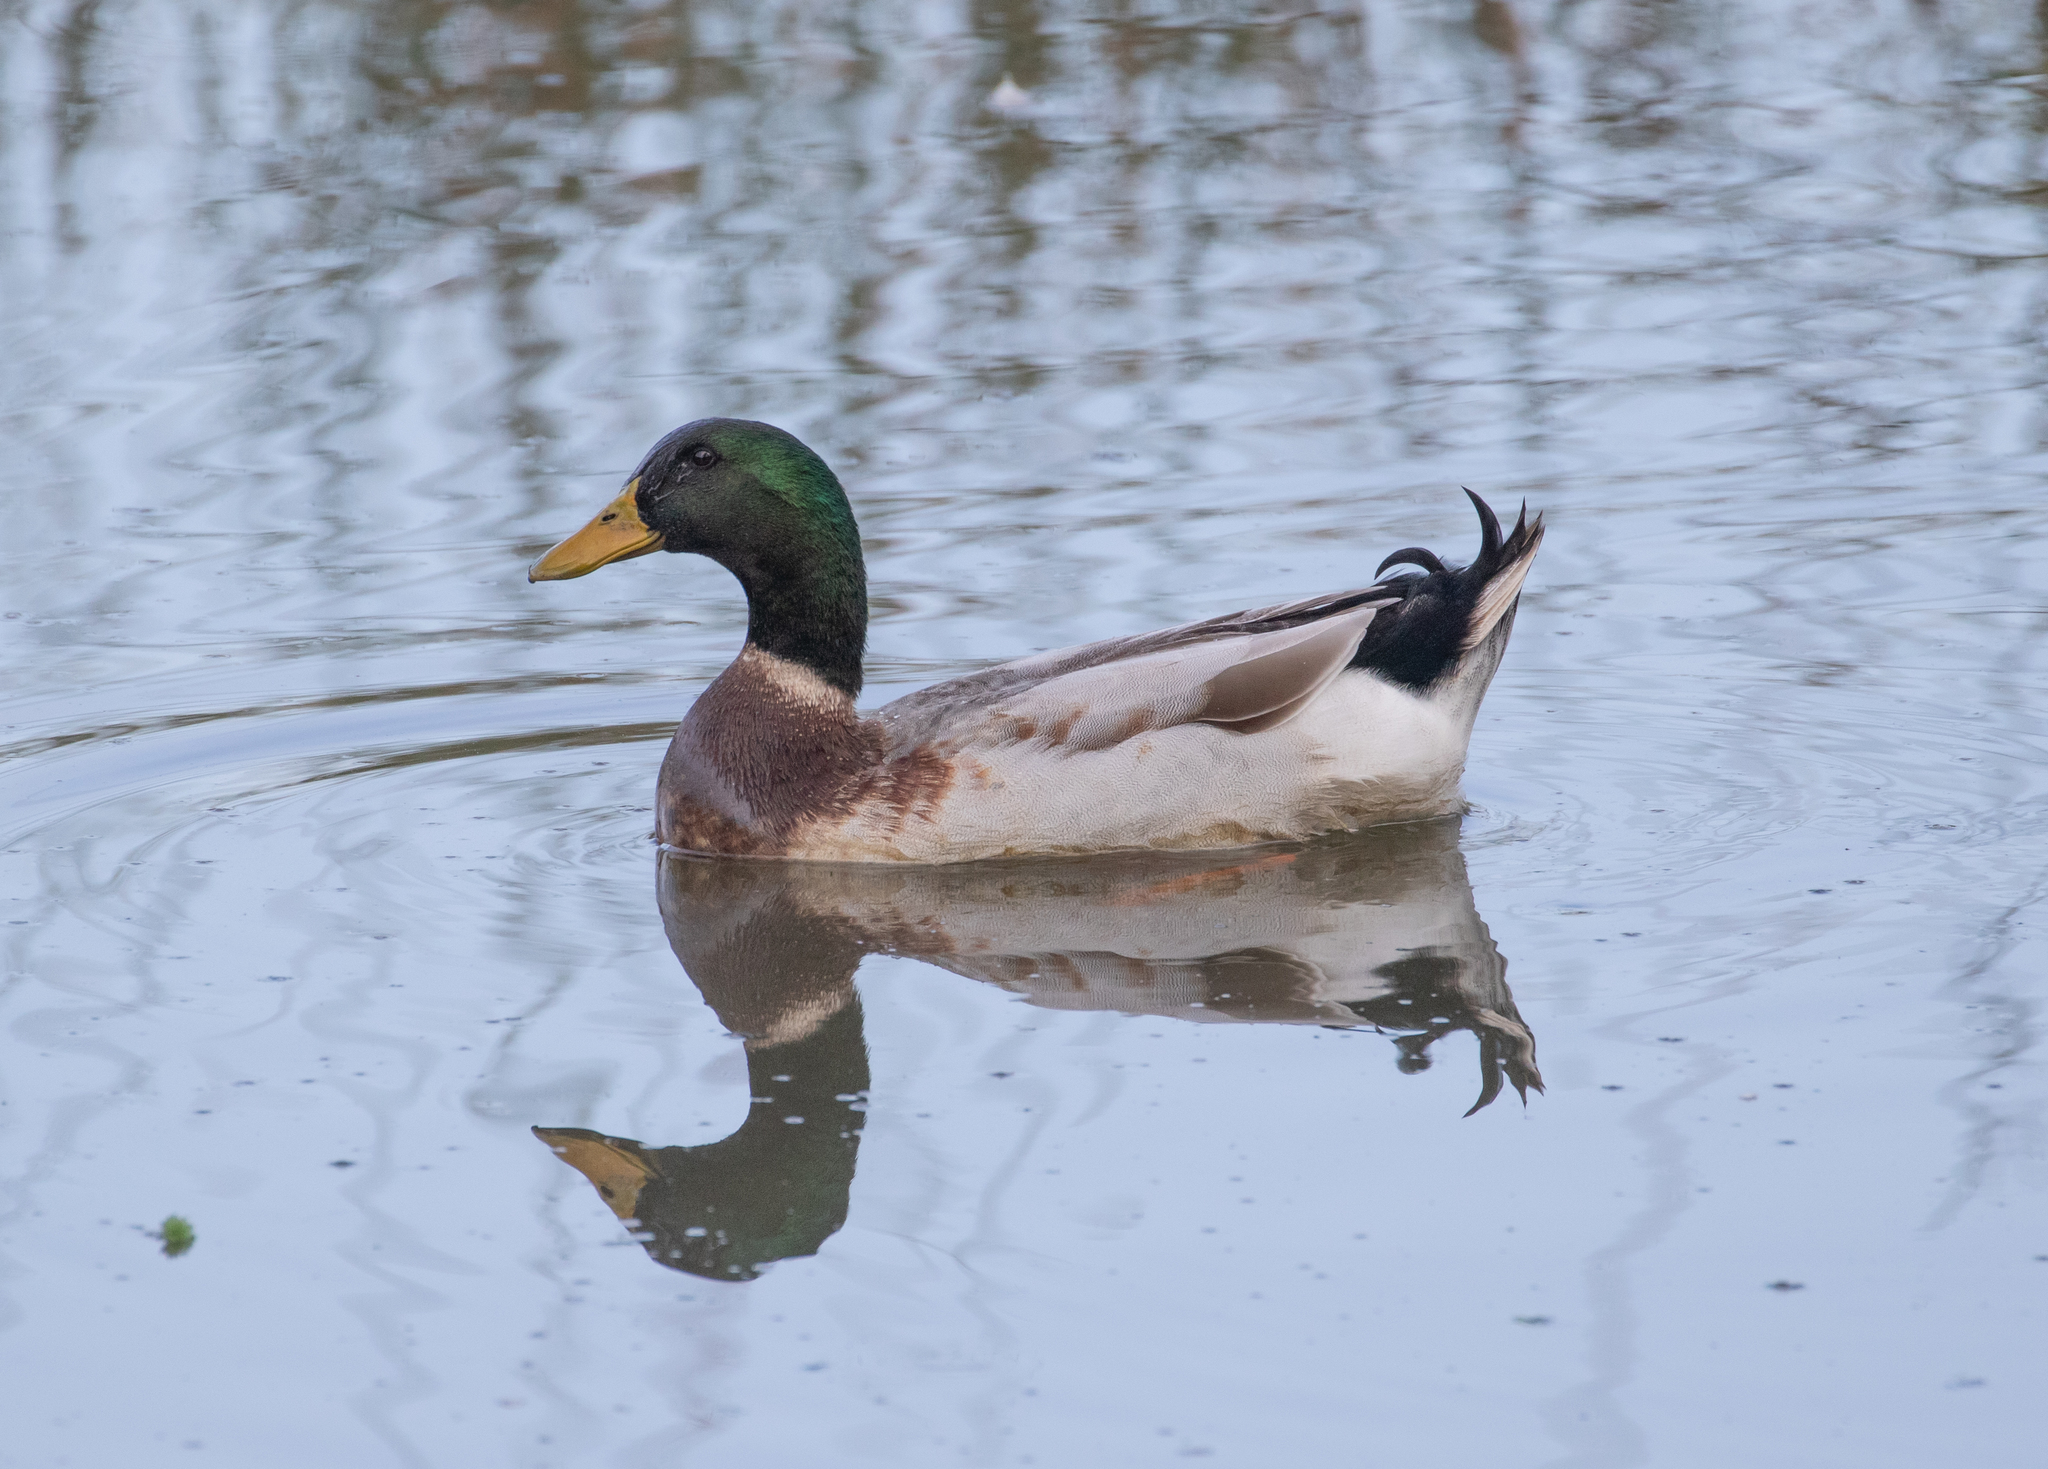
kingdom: Animalia
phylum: Chordata
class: Aves
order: Anseriformes
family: Anatidae
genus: Anas
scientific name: Anas platyrhynchos
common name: Mallard
